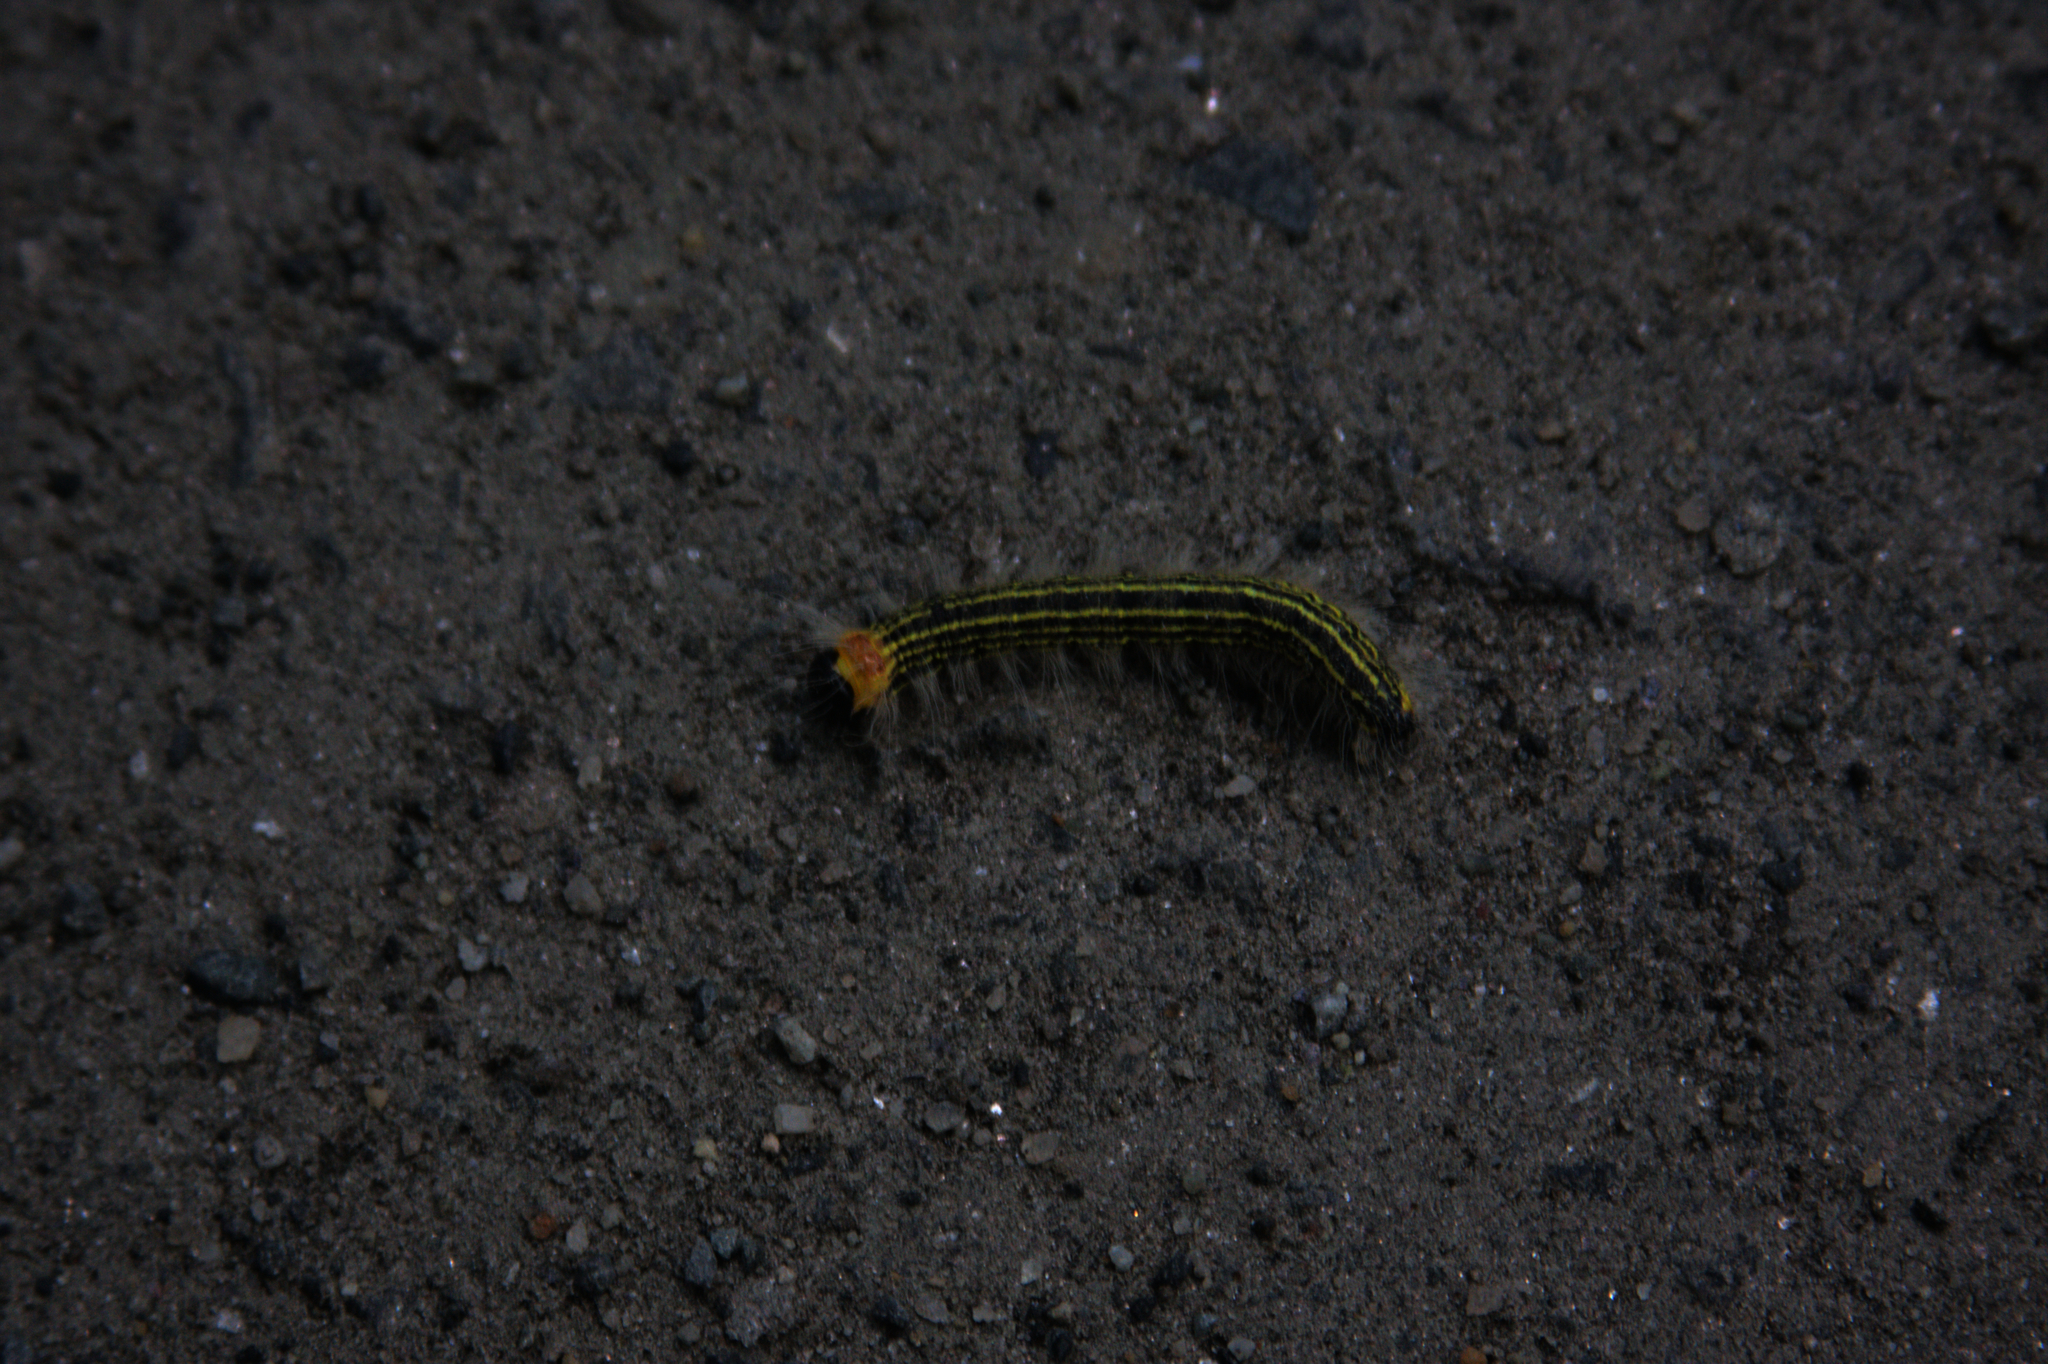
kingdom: Animalia
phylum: Arthropoda
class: Insecta
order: Lepidoptera
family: Notodontidae
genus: Datana
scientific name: Datana ministra
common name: Yellow-necked caterpillar moth
